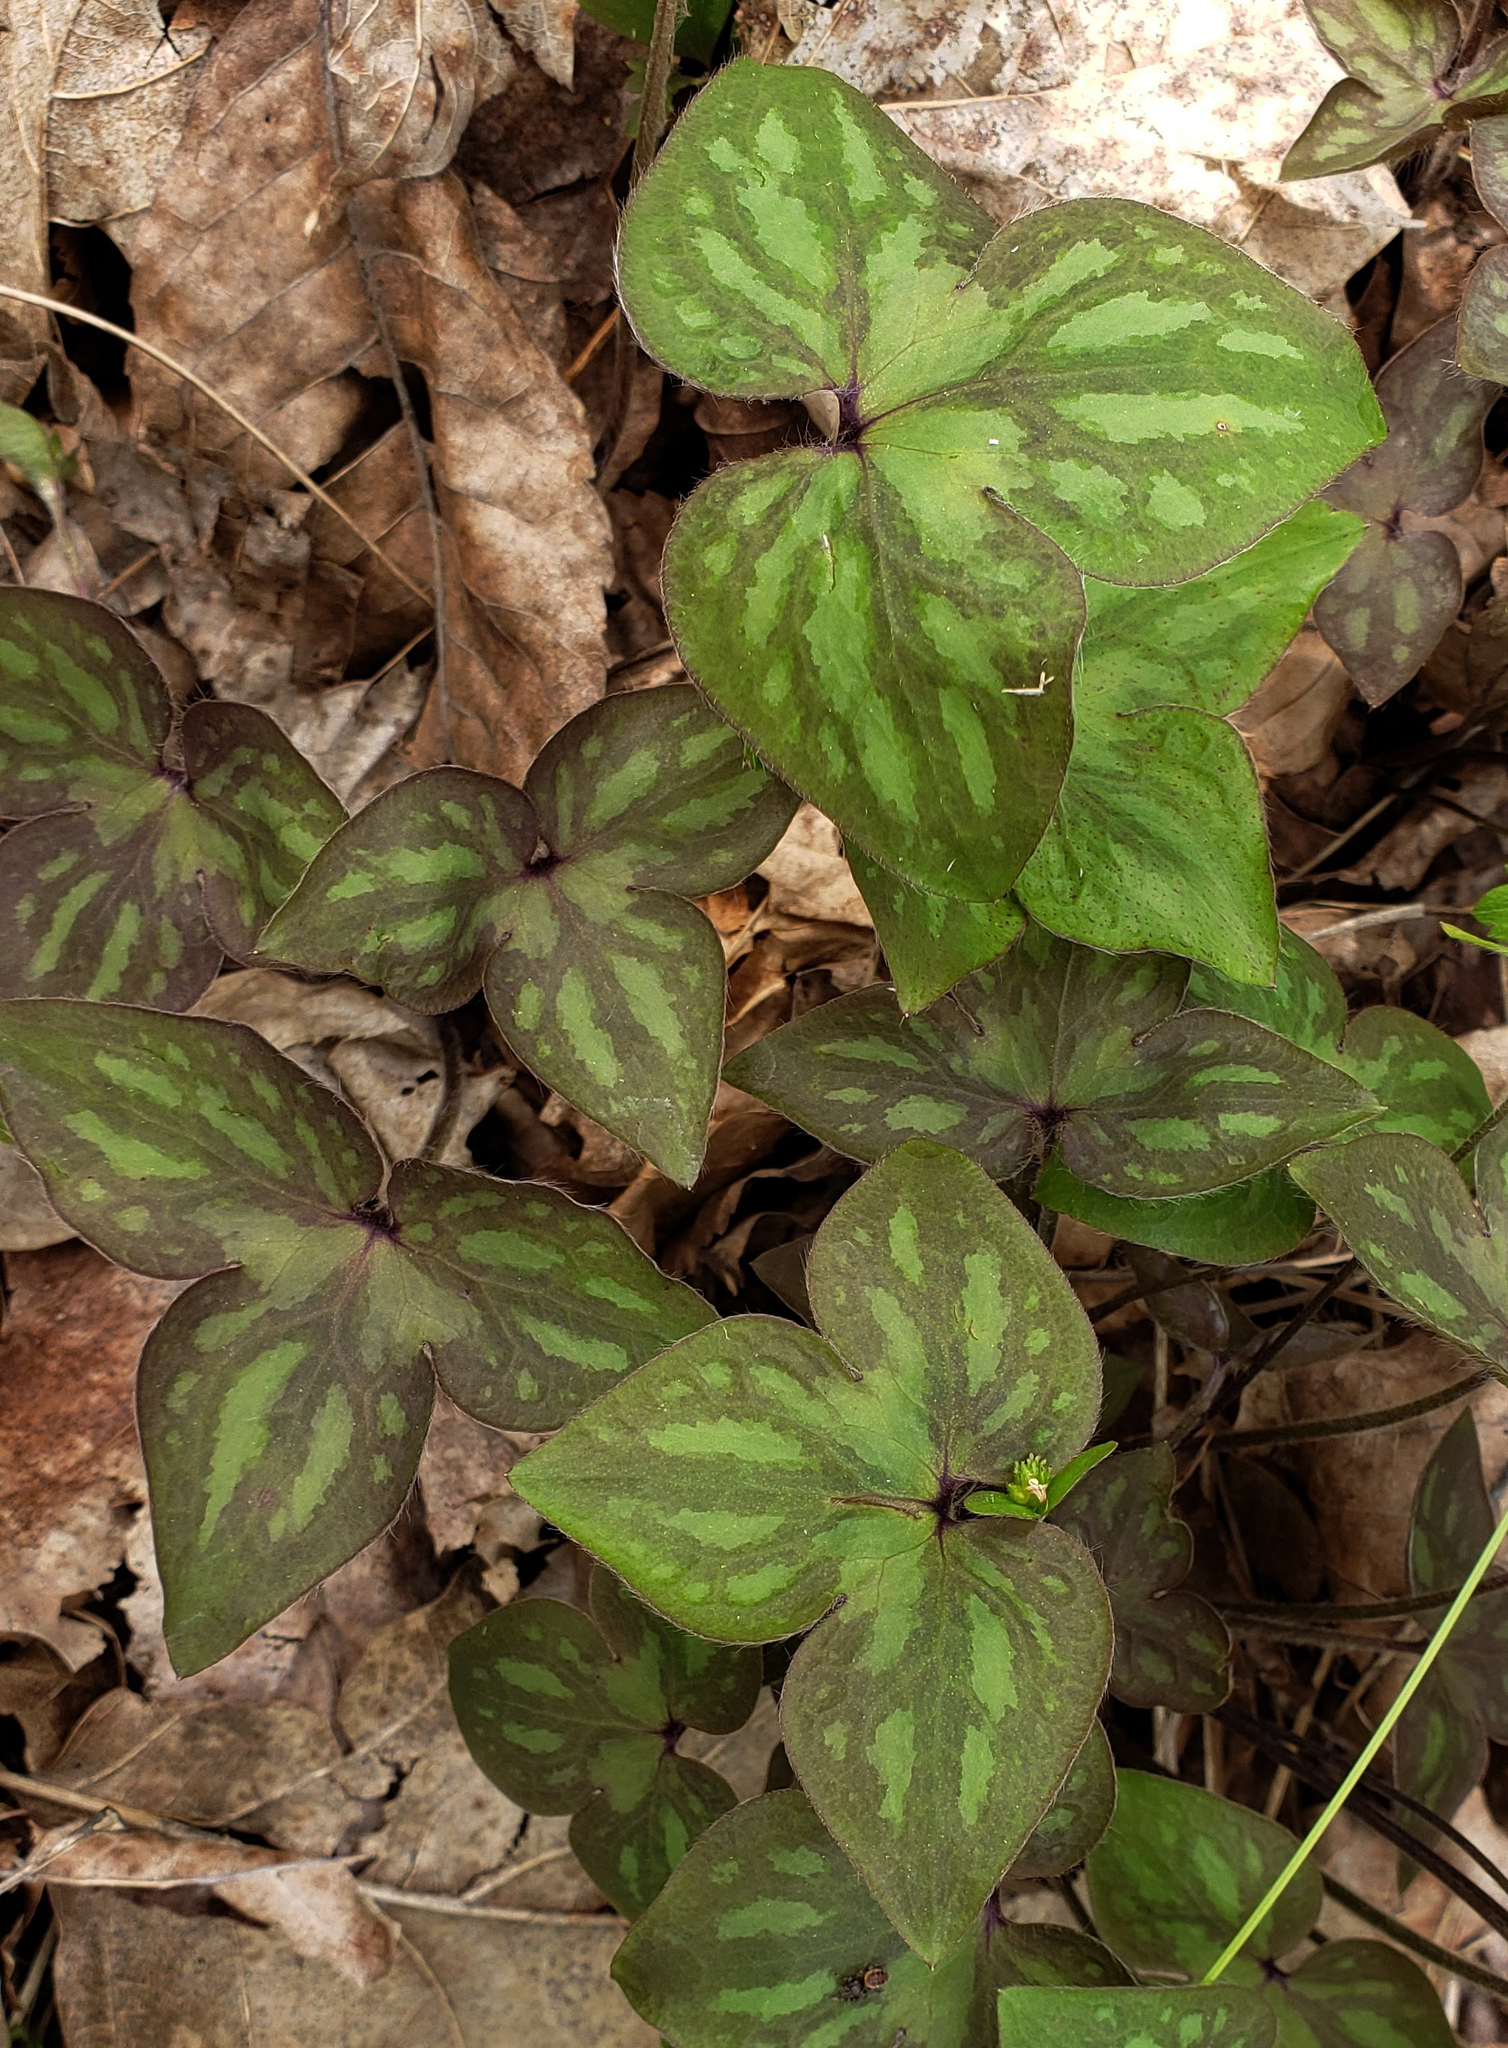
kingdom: Plantae
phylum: Tracheophyta
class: Magnoliopsida
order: Ranunculales
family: Ranunculaceae
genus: Hepatica
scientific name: Hepatica acutiloba
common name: Sharp-lobed hepatica
